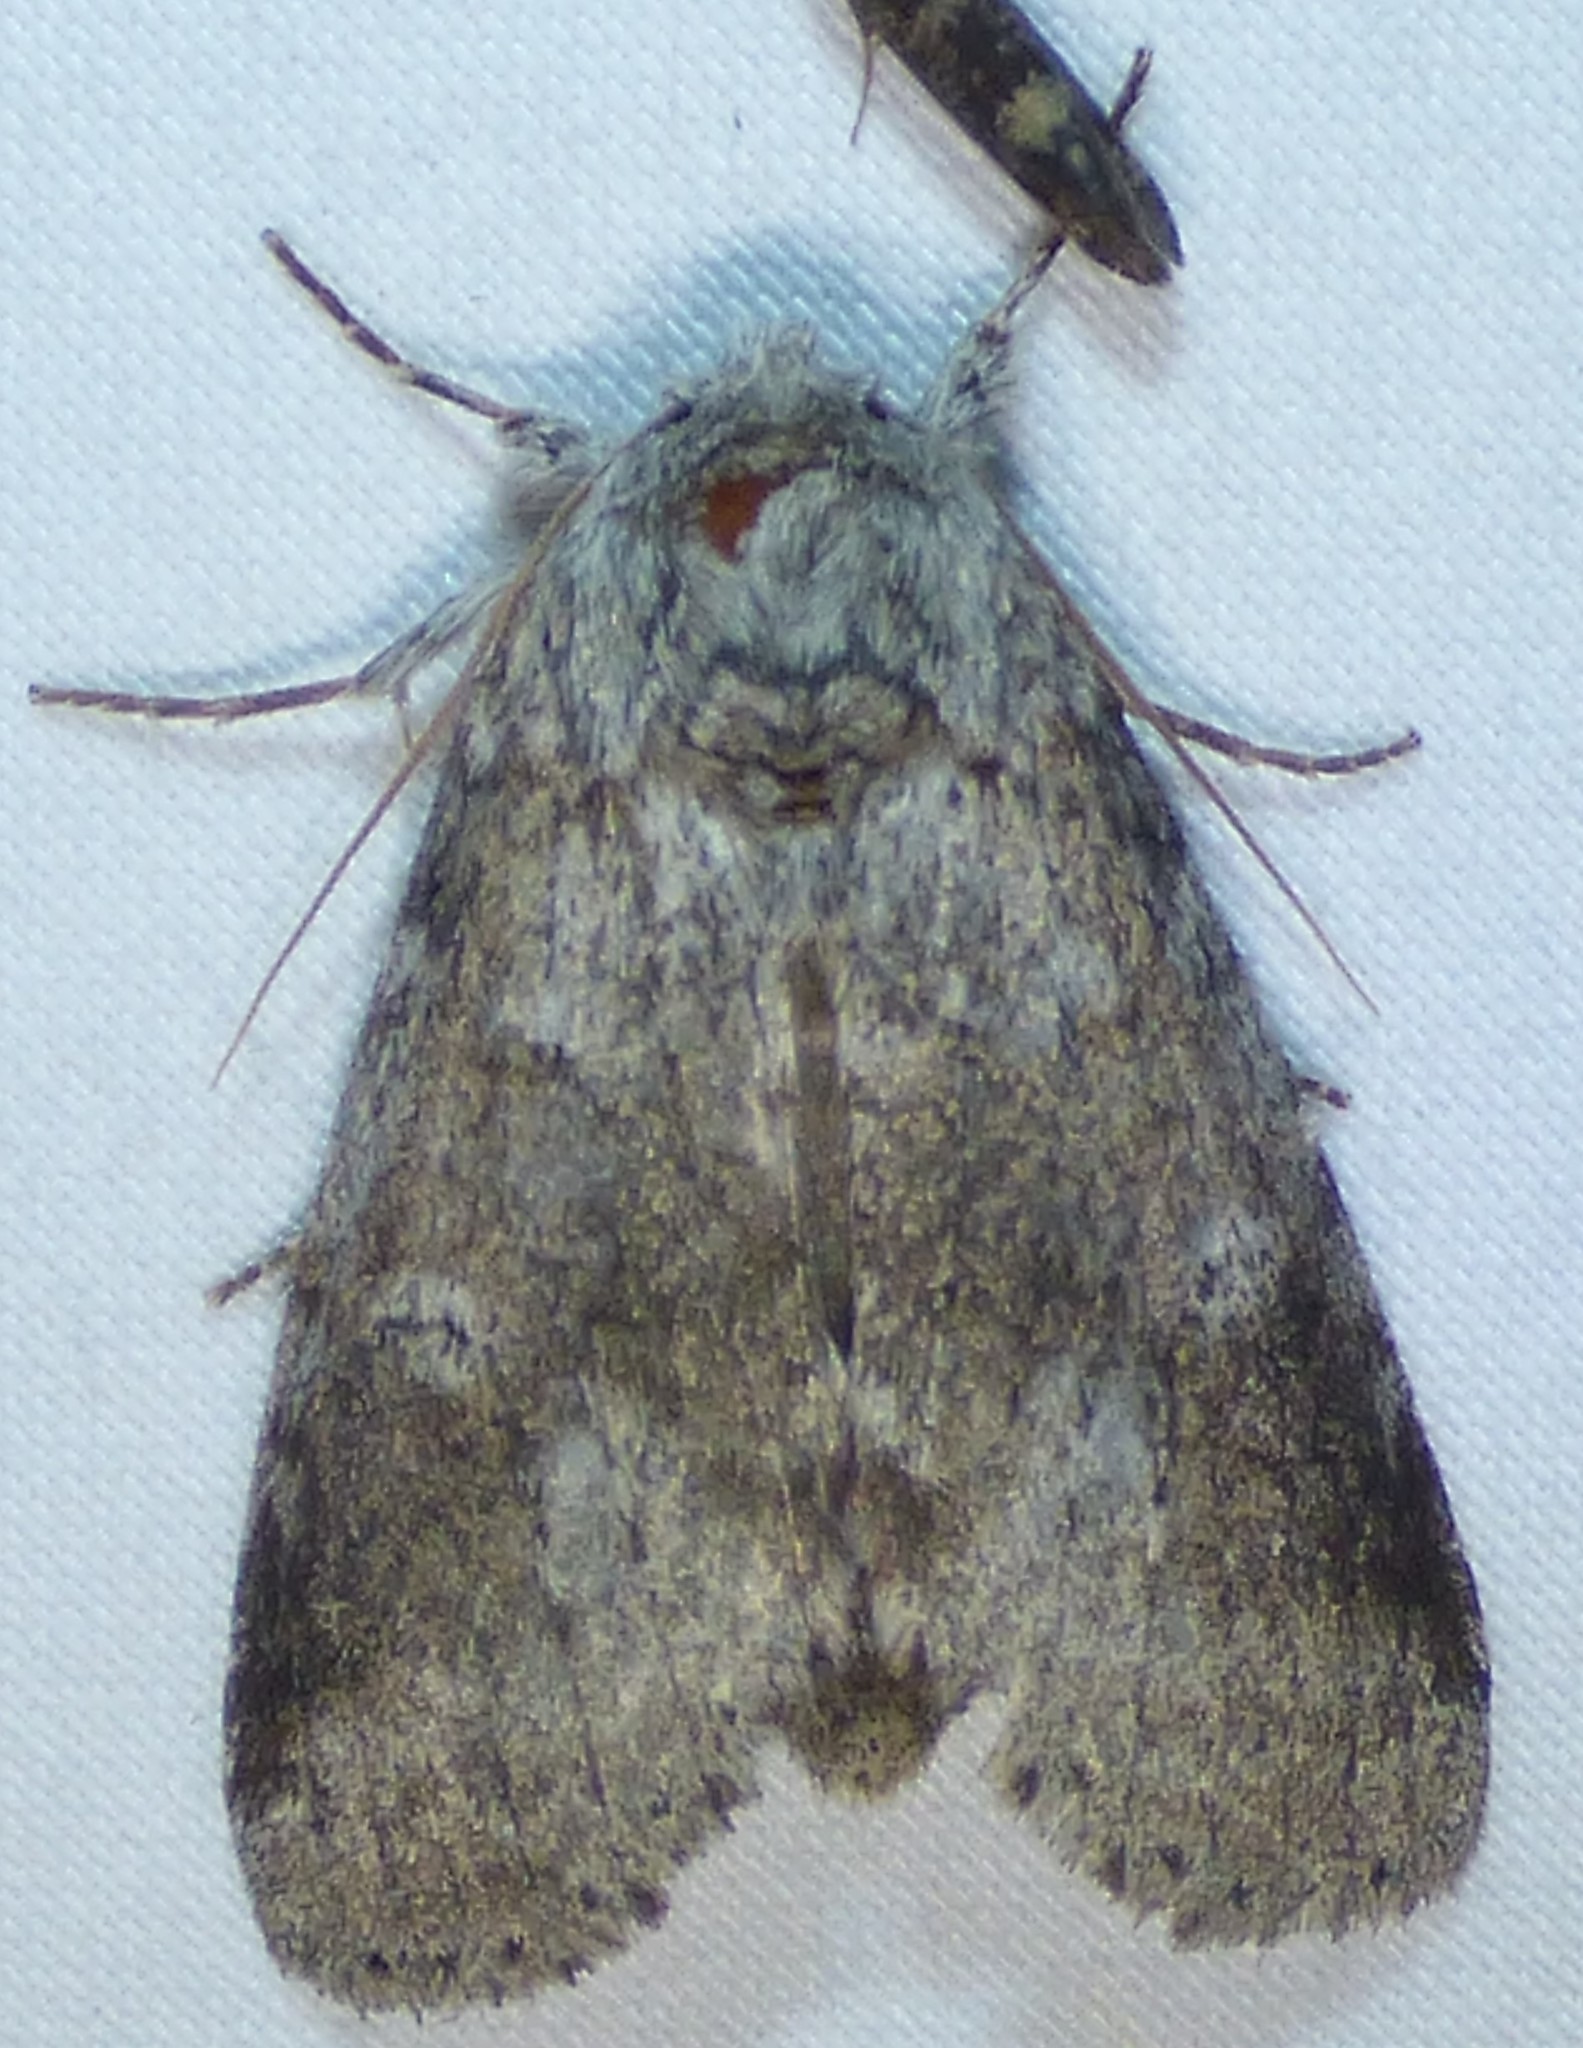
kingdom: Animalia
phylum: Arthropoda
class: Insecta
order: Lepidoptera
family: Notodontidae
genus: Lochmaeus
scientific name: Lochmaeus manteo
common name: Variable oakleaf caterpillar moth
